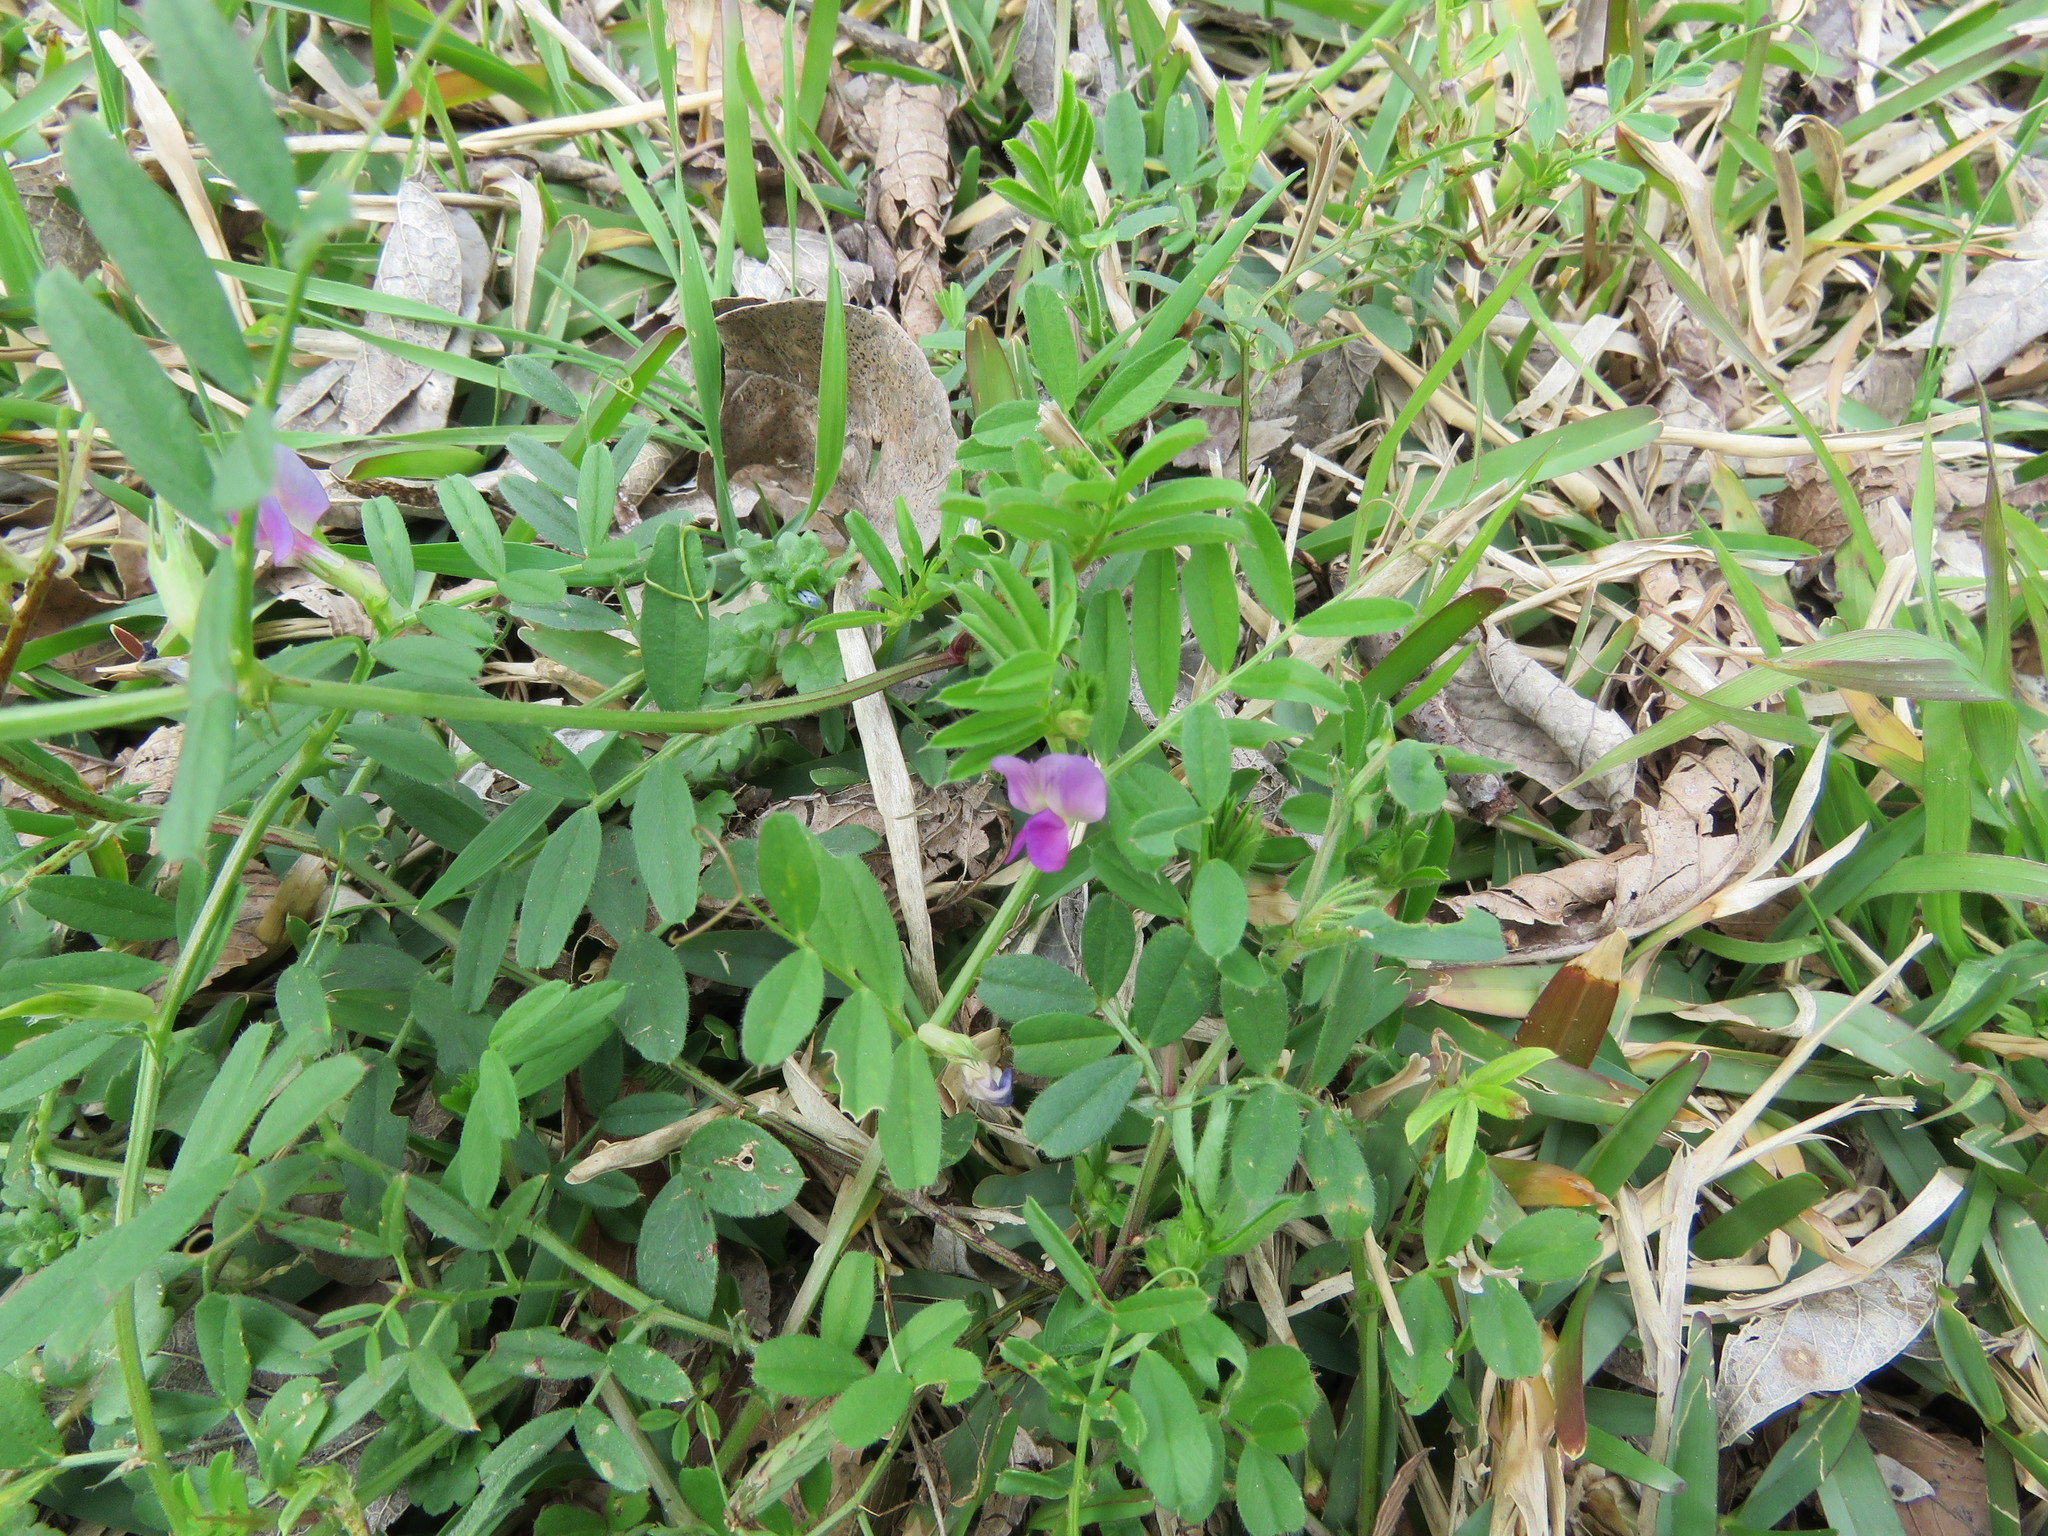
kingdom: Plantae
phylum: Tracheophyta
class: Magnoliopsida
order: Fabales
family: Fabaceae
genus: Vicia
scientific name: Vicia sativa
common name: Garden vetch
